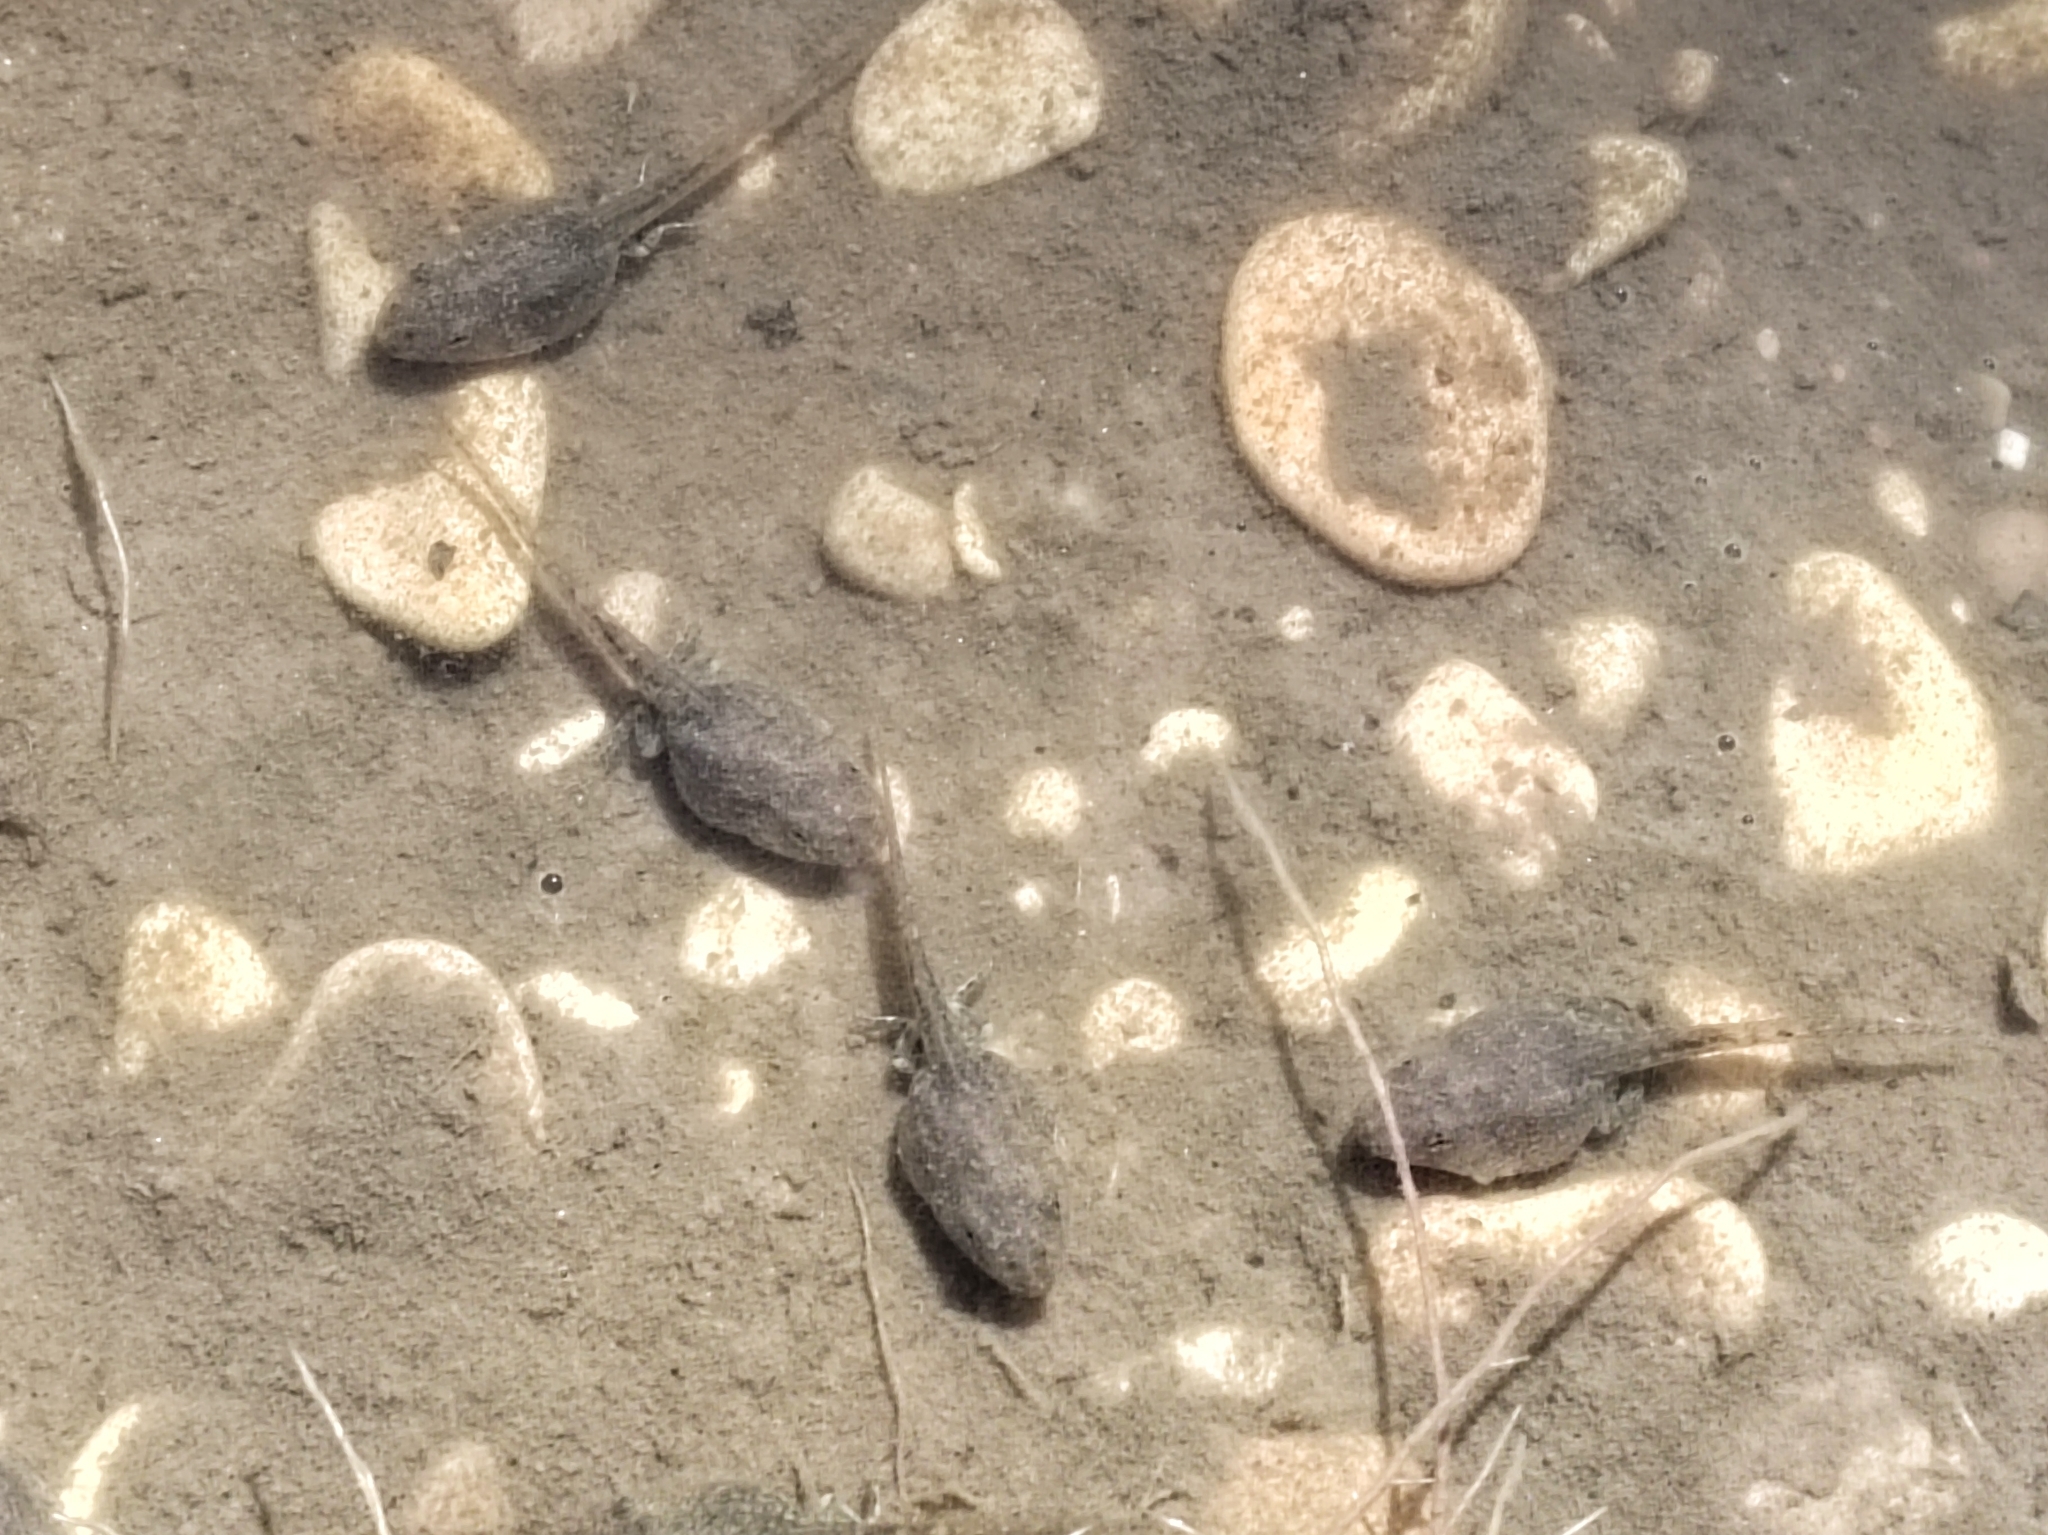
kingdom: Animalia
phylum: Chordata
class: Amphibia
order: Anura
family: Ranidae
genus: Pelophylax
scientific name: Pelophylax ridibundus
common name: Marsh frog
